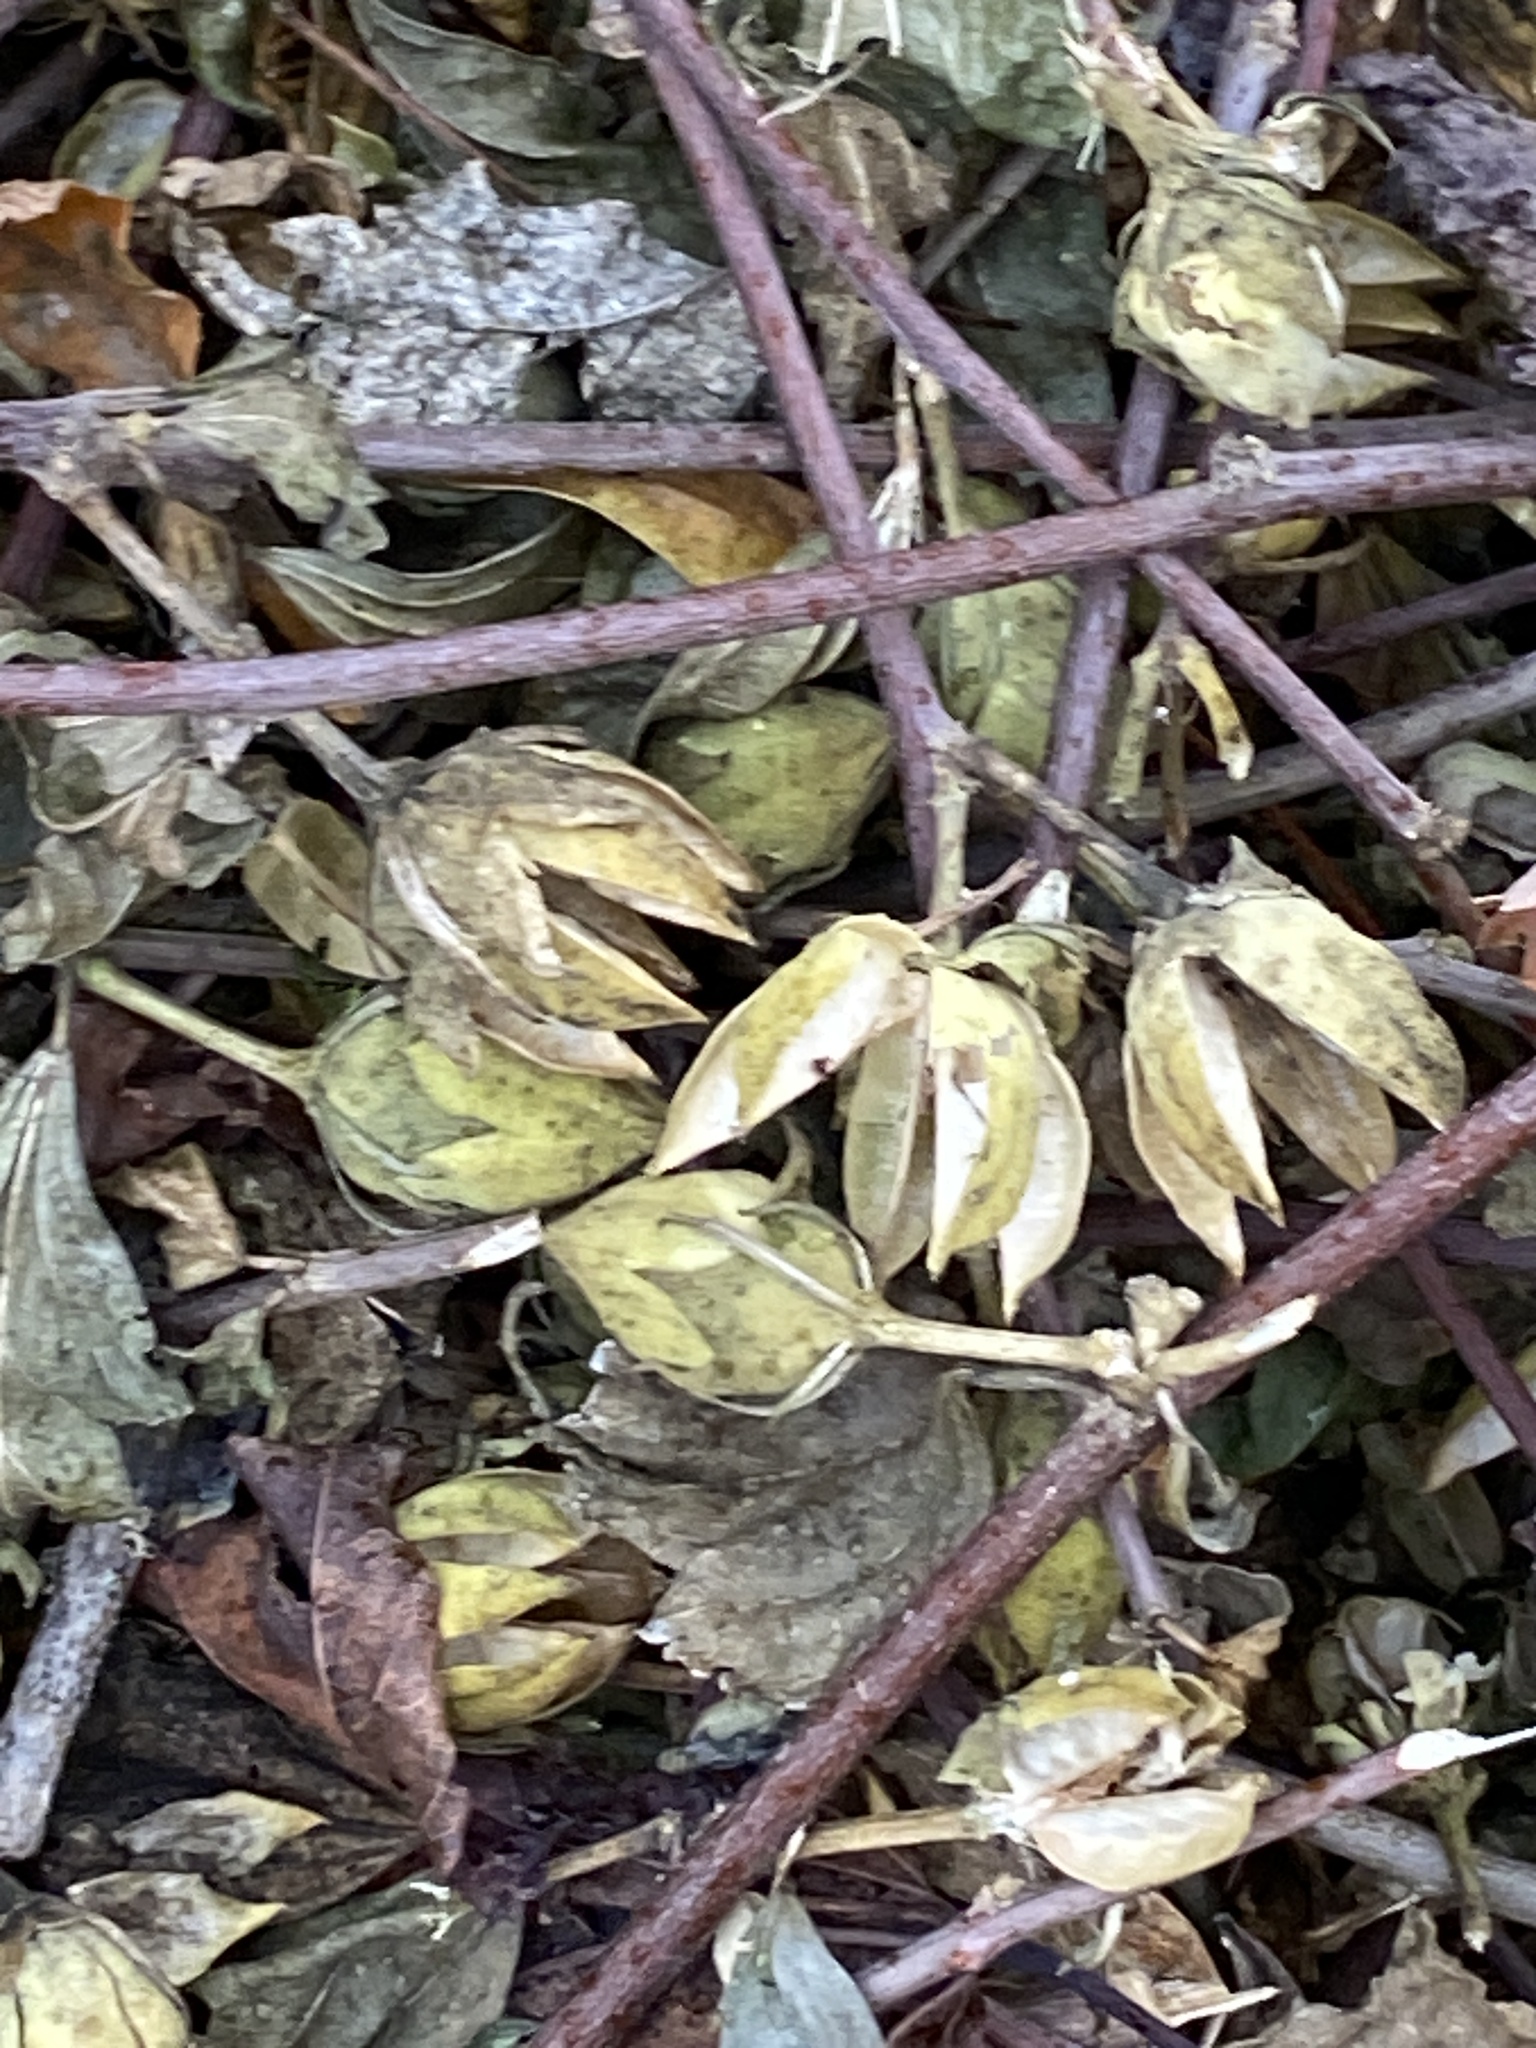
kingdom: Plantae
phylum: Tracheophyta
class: Magnoliopsida
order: Malvales
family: Malvaceae
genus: Hibiscus
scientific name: Hibiscus syriacus
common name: Syrian ketmia
